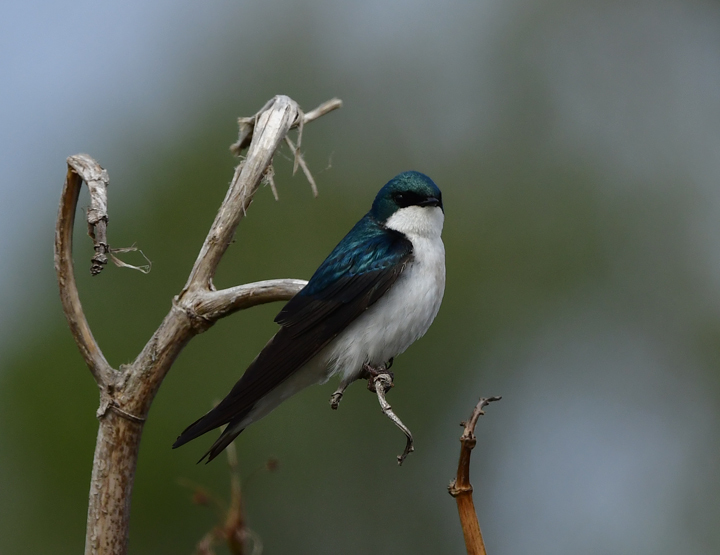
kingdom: Animalia
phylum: Chordata
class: Aves
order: Passeriformes
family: Hirundinidae
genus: Tachycineta
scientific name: Tachycineta bicolor
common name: Tree swallow
